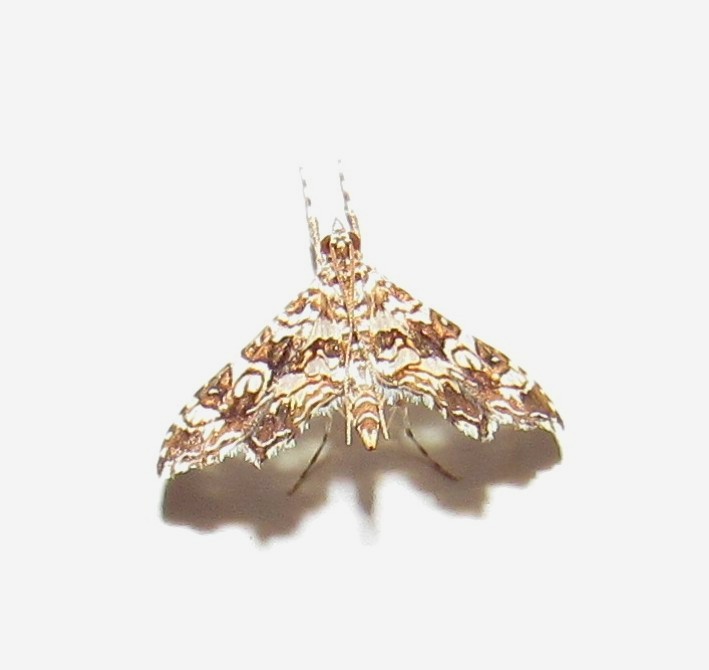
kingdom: Animalia
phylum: Arthropoda
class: Insecta
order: Lepidoptera
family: Crambidae
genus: Sisyracera
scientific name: Sisyracera inabsconsalis
